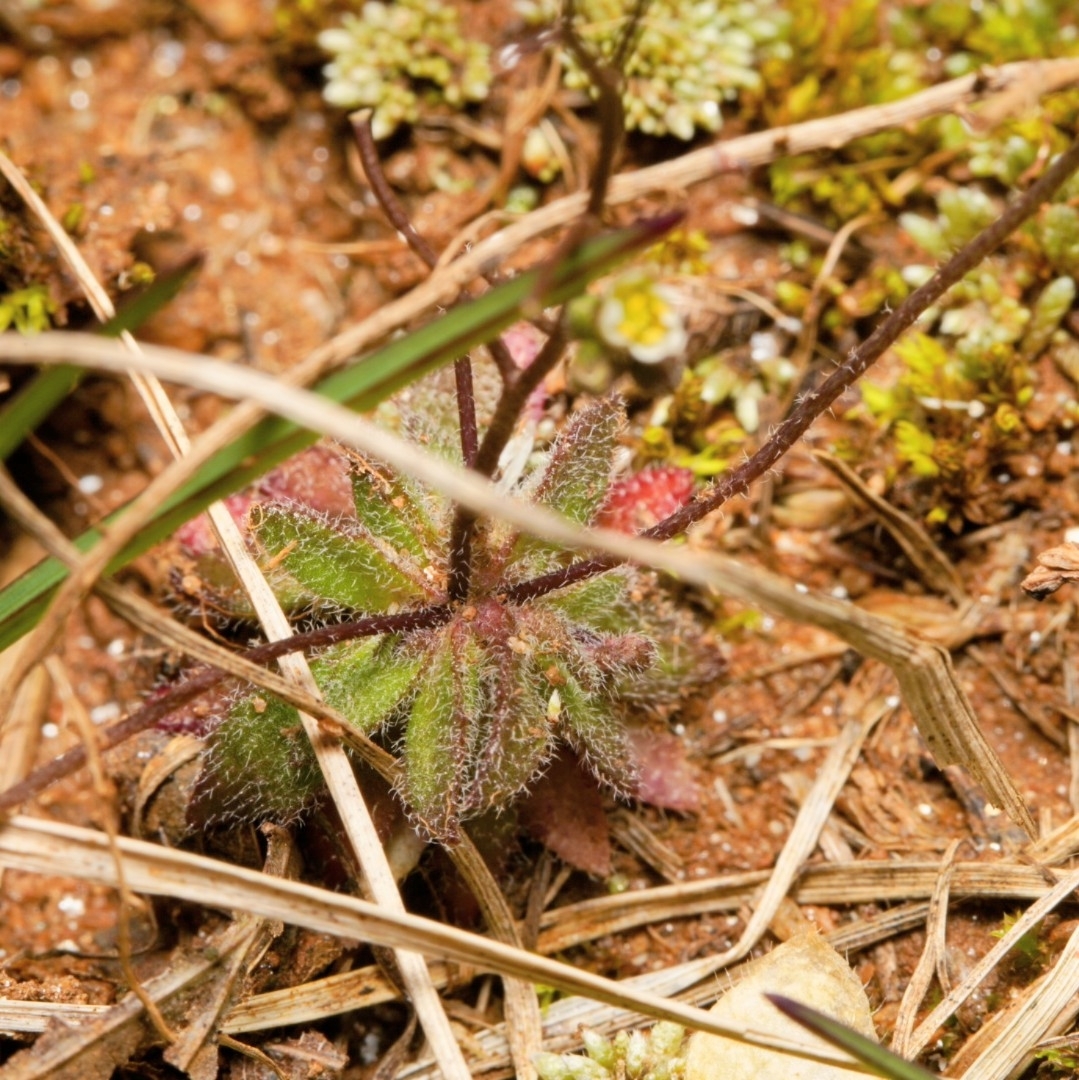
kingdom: Plantae
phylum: Tracheophyta
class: Magnoliopsida
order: Brassicales
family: Brassicaceae
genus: Draba
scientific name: Draba verna
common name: Spring draba
